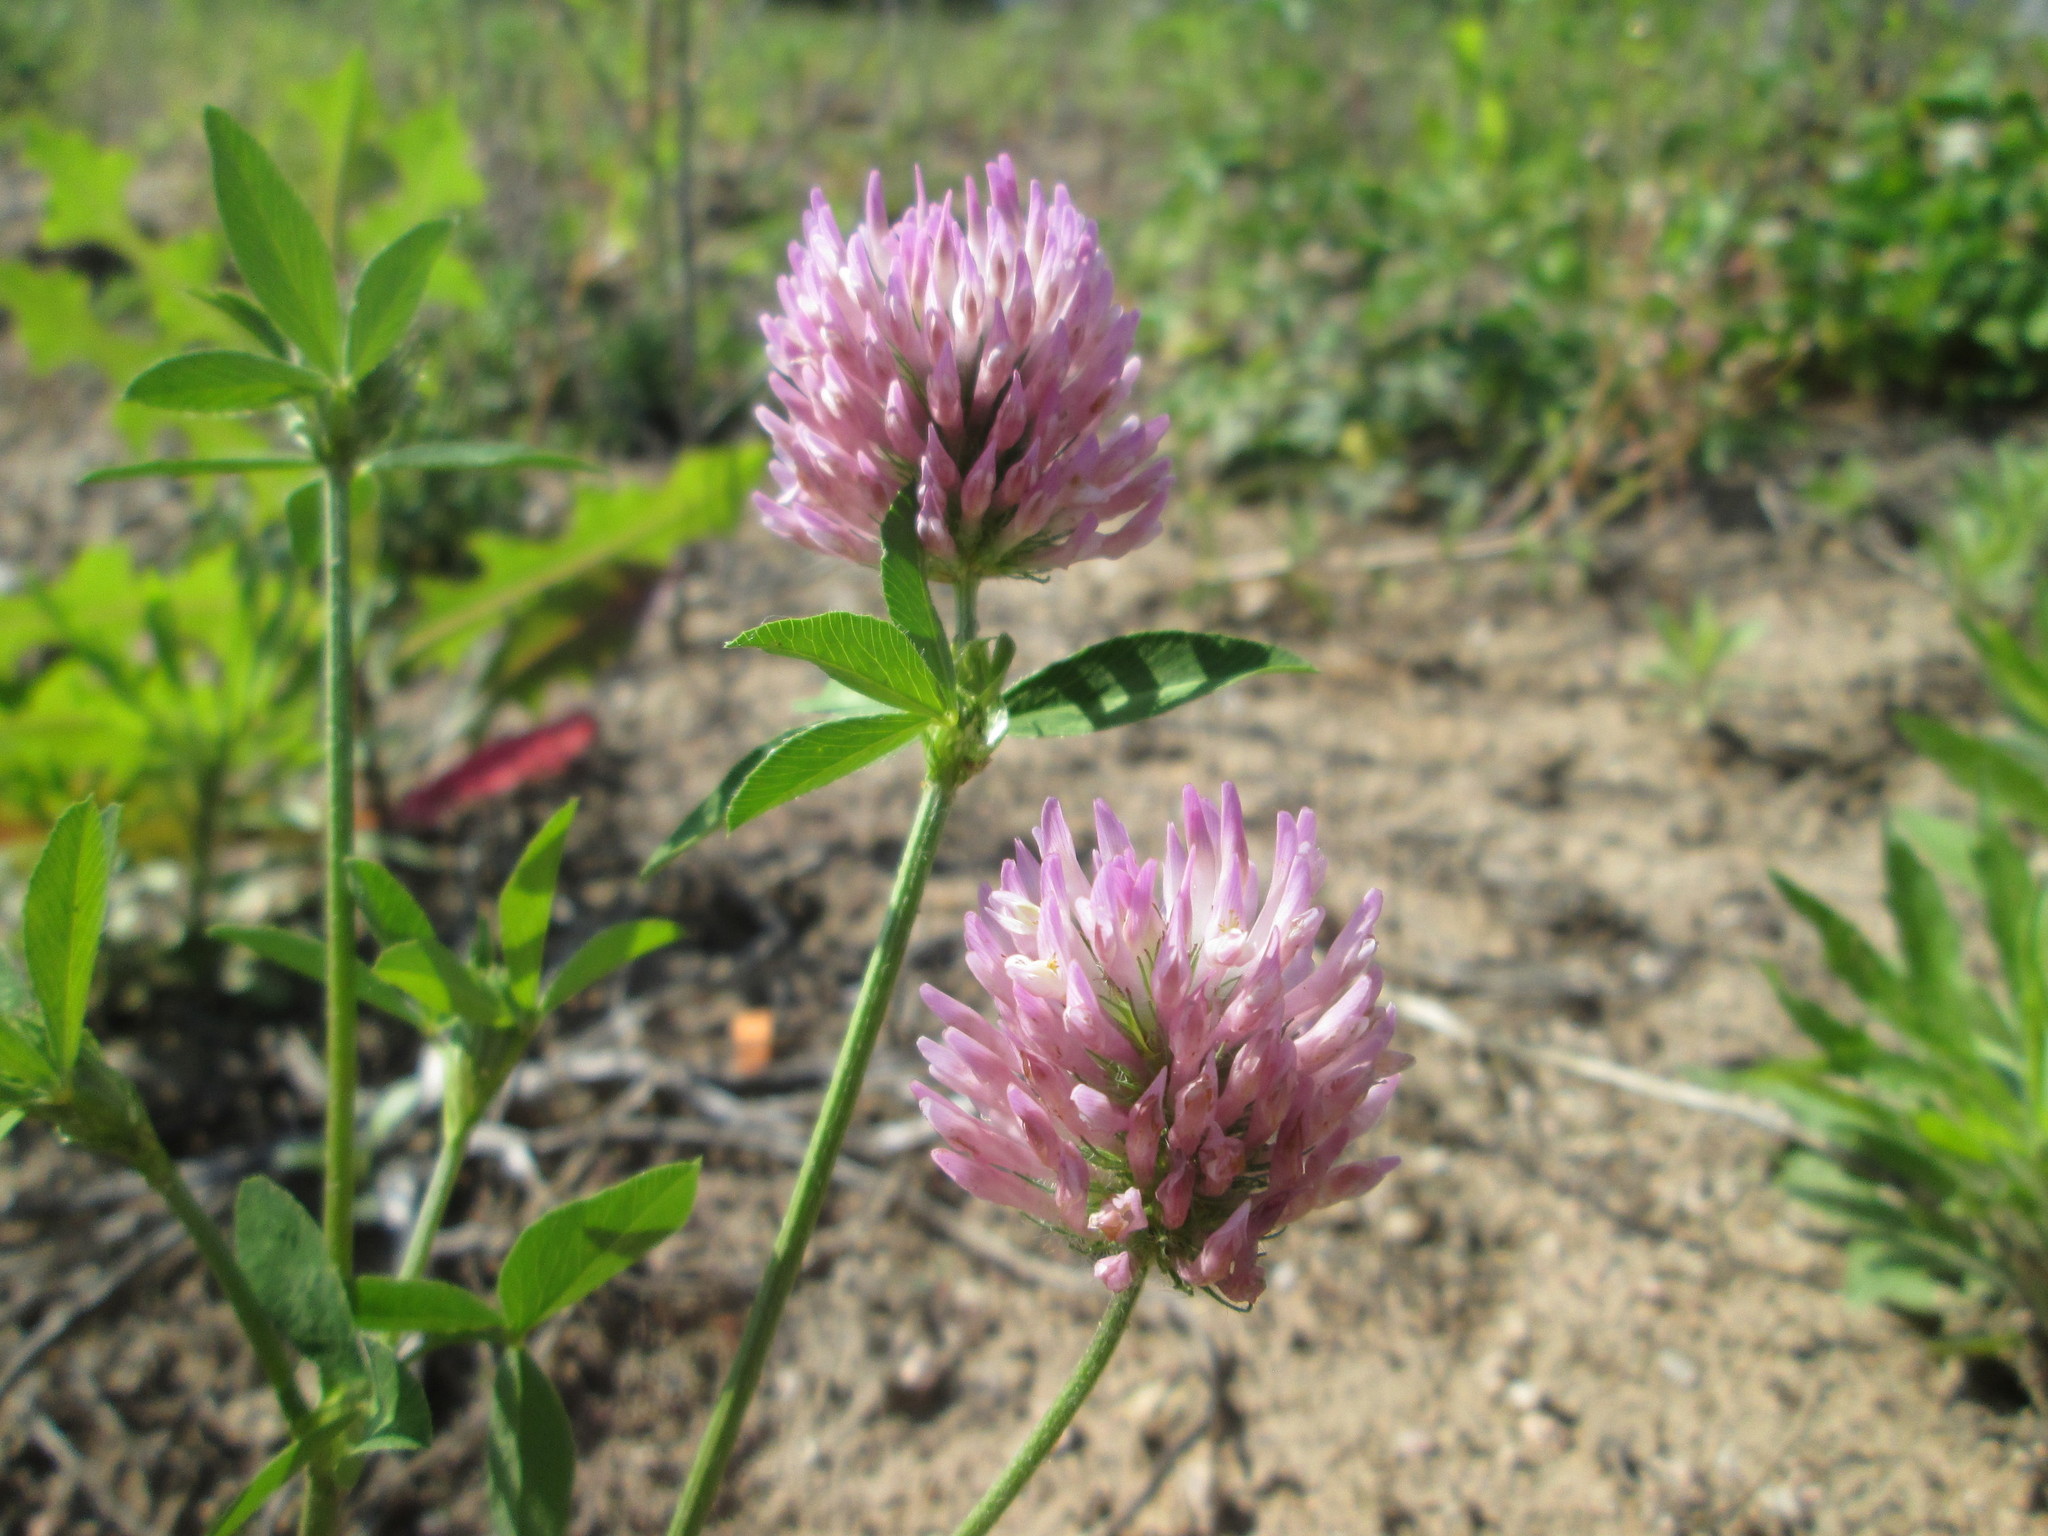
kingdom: Plantae
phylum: Tracheophyta
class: Magnoliopsida
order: Fabales
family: Fabaceae
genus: Trifolium
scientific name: Trifolium pratense
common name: Red clover
